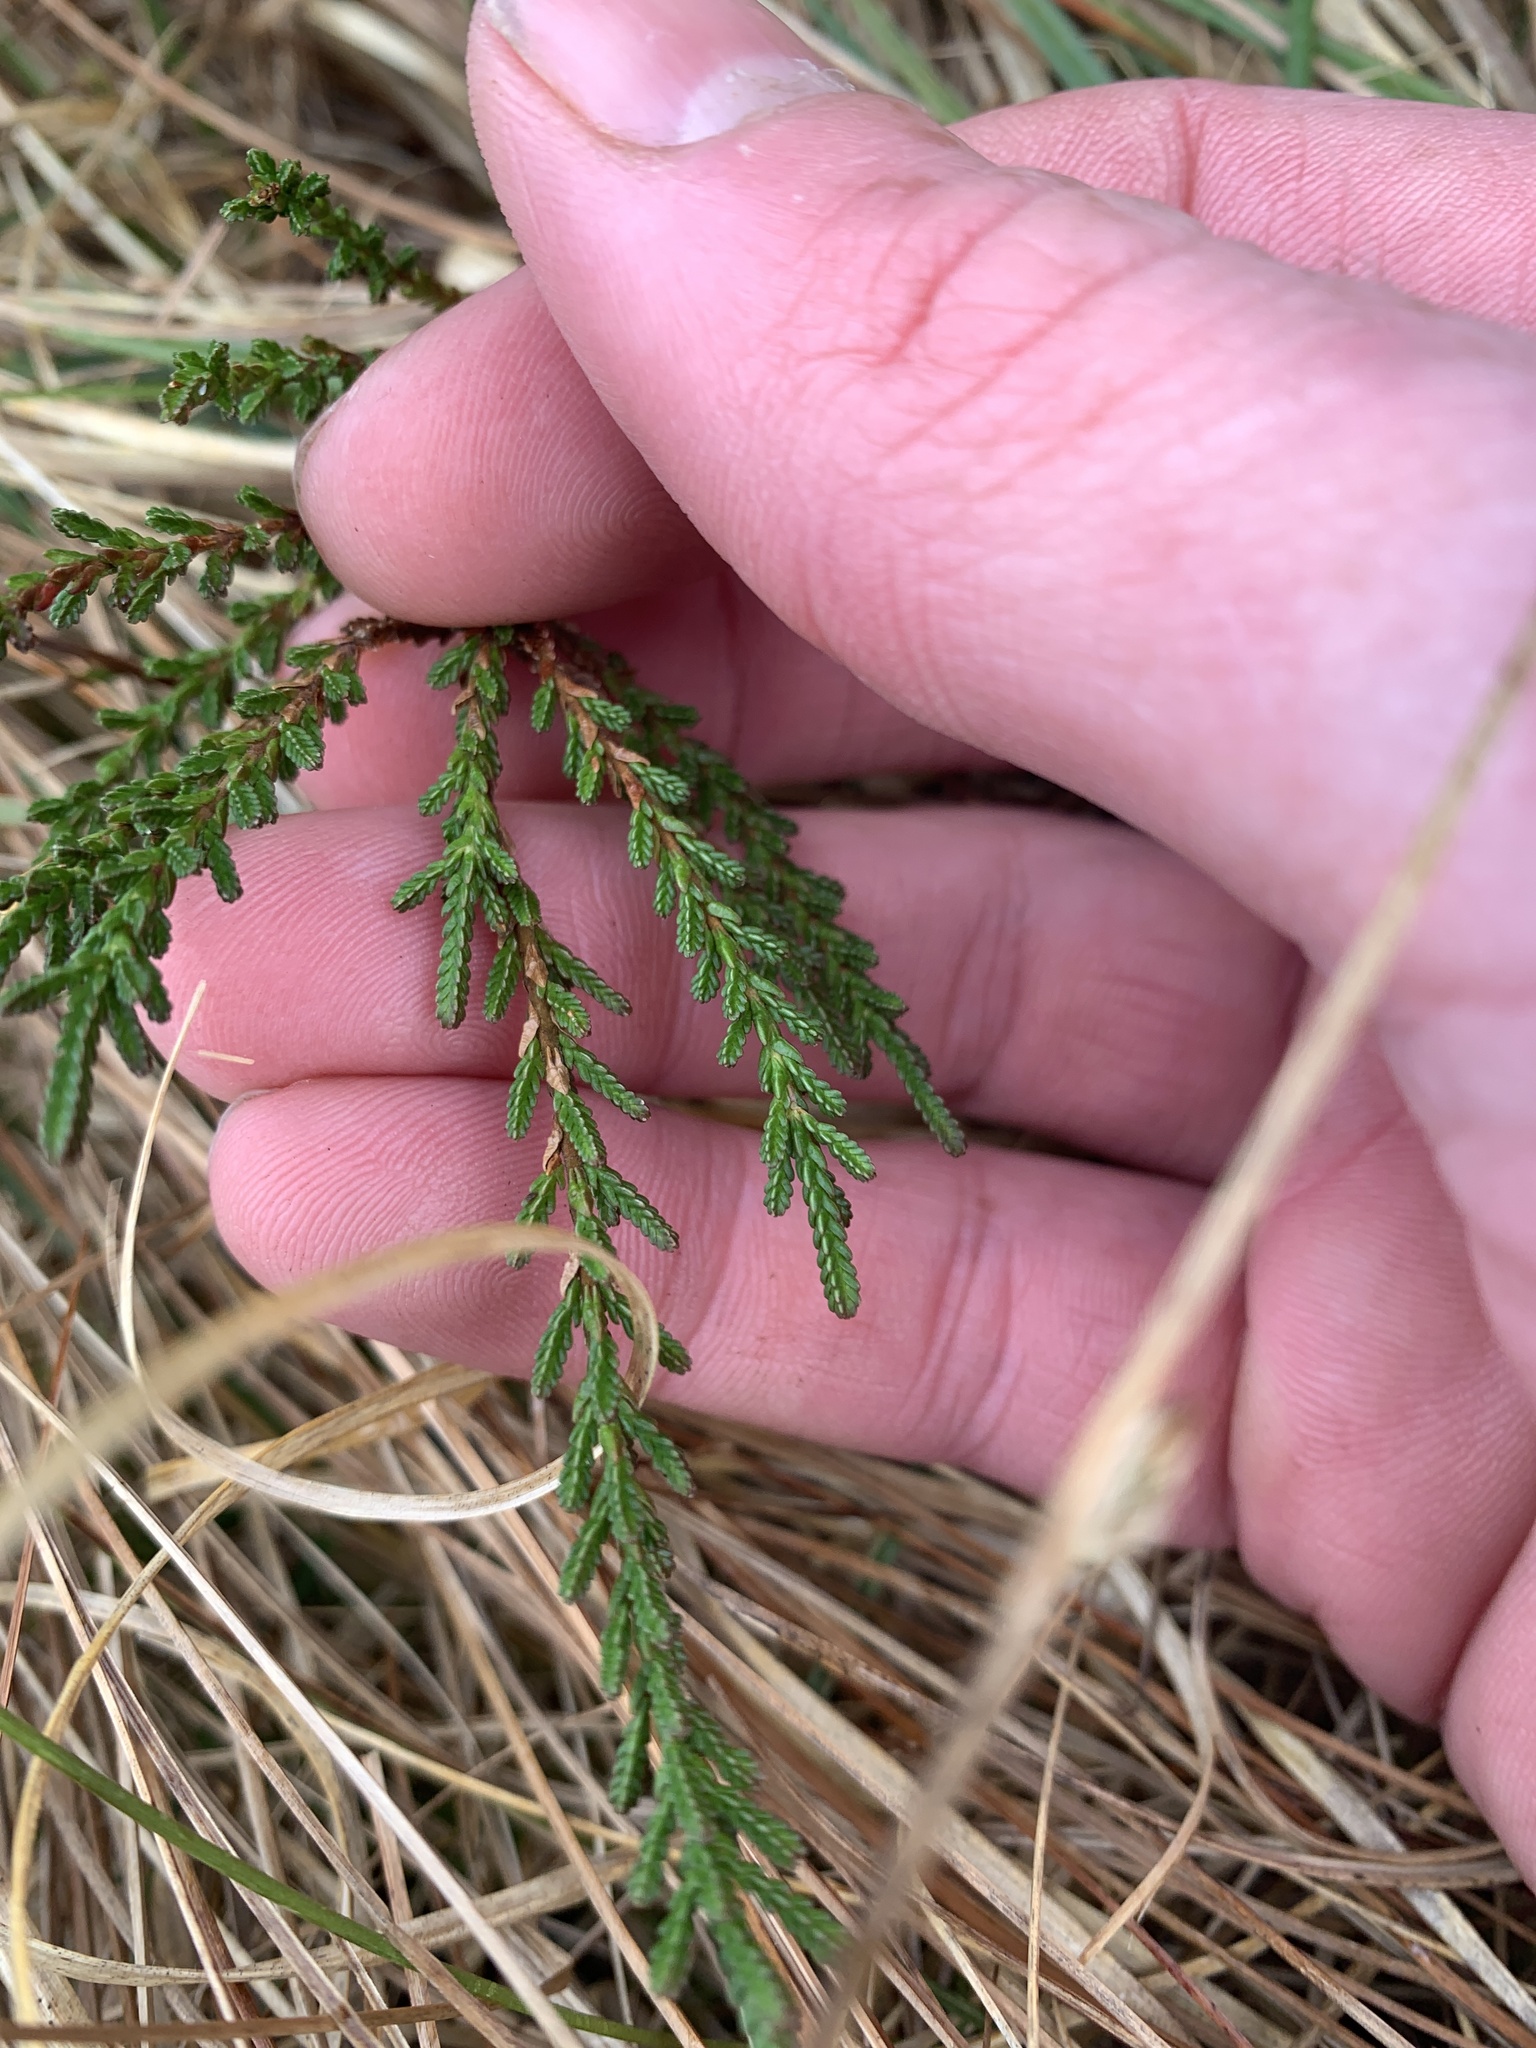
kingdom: Plantae
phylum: Tracheophyta
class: Magnoliopsida
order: Ericales
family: Ericaceae
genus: Calluna
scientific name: Calluna vulgaris
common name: Heather
